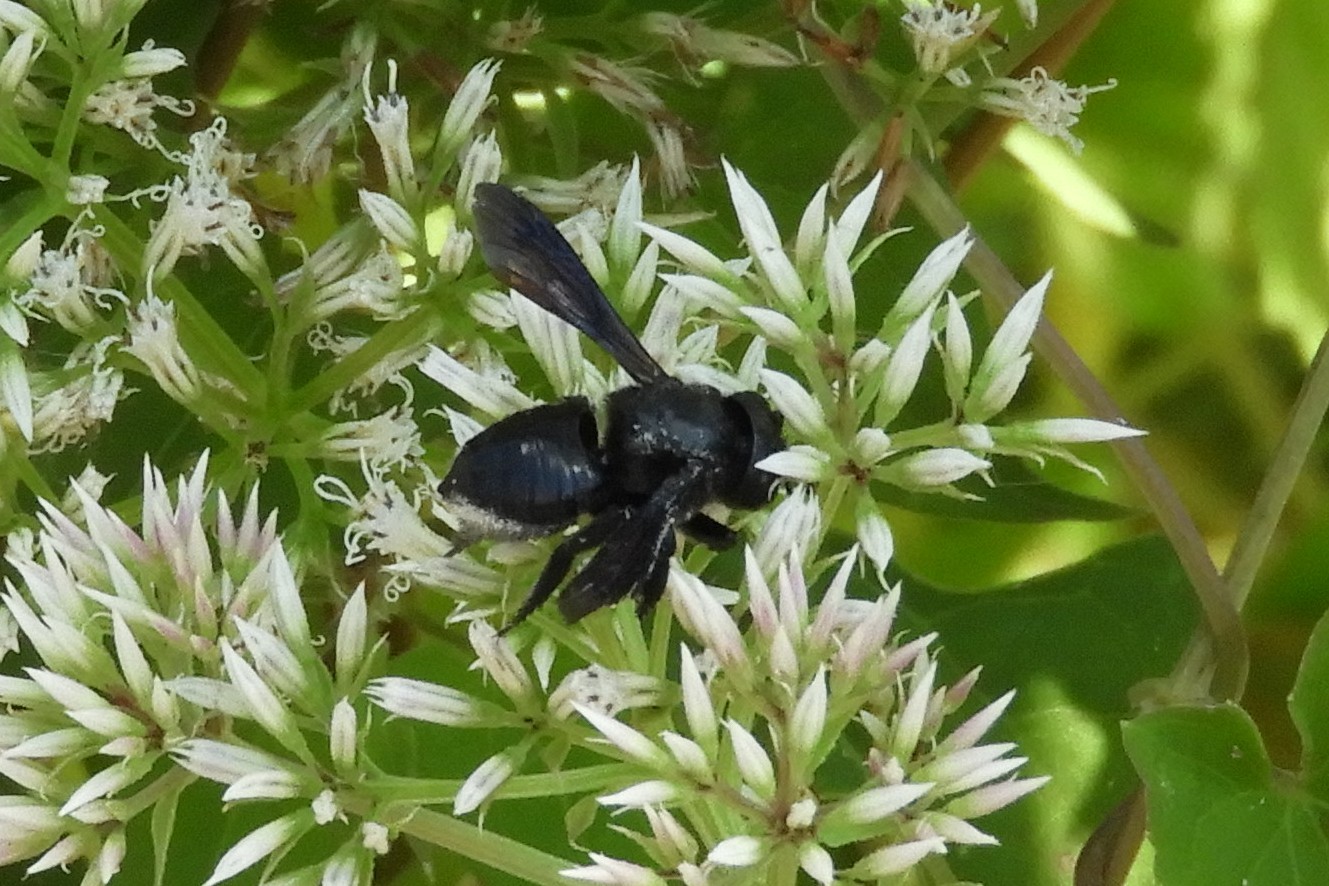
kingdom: Animalia
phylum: Arthropoda
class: Insecta
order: Hymenoptera
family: Megachilidae
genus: Megachile
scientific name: Megachile xylocopoides
